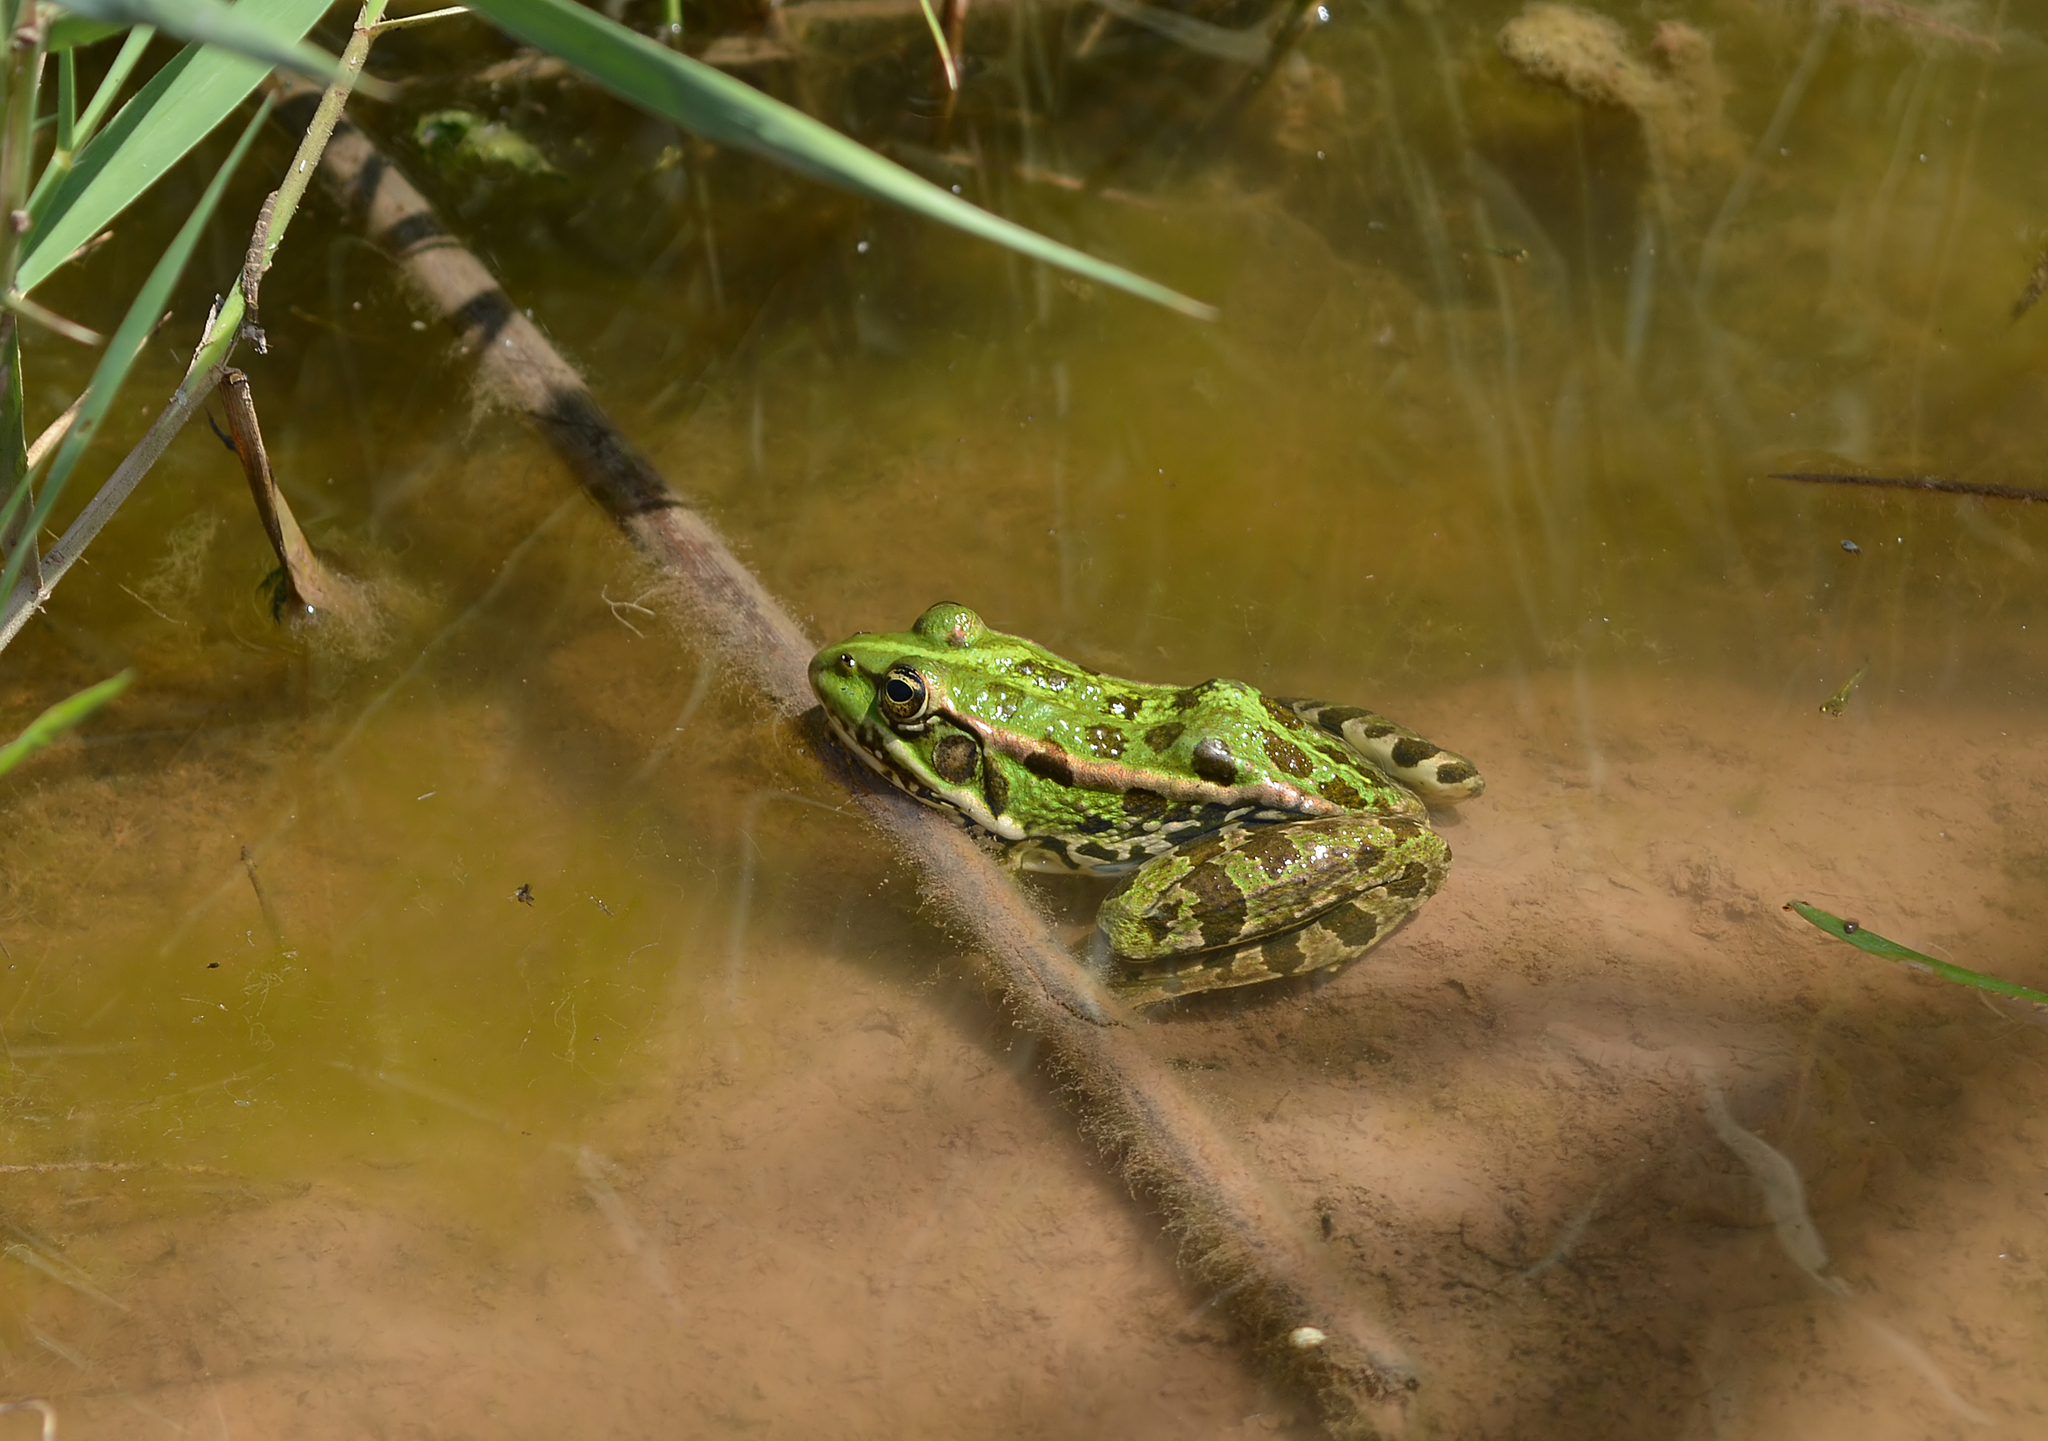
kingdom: Animalia
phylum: Chordata
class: Amphibia
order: Anura
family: Ranidae
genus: Pelophylax
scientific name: Pelophylax ridibundus
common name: Marsh frog
